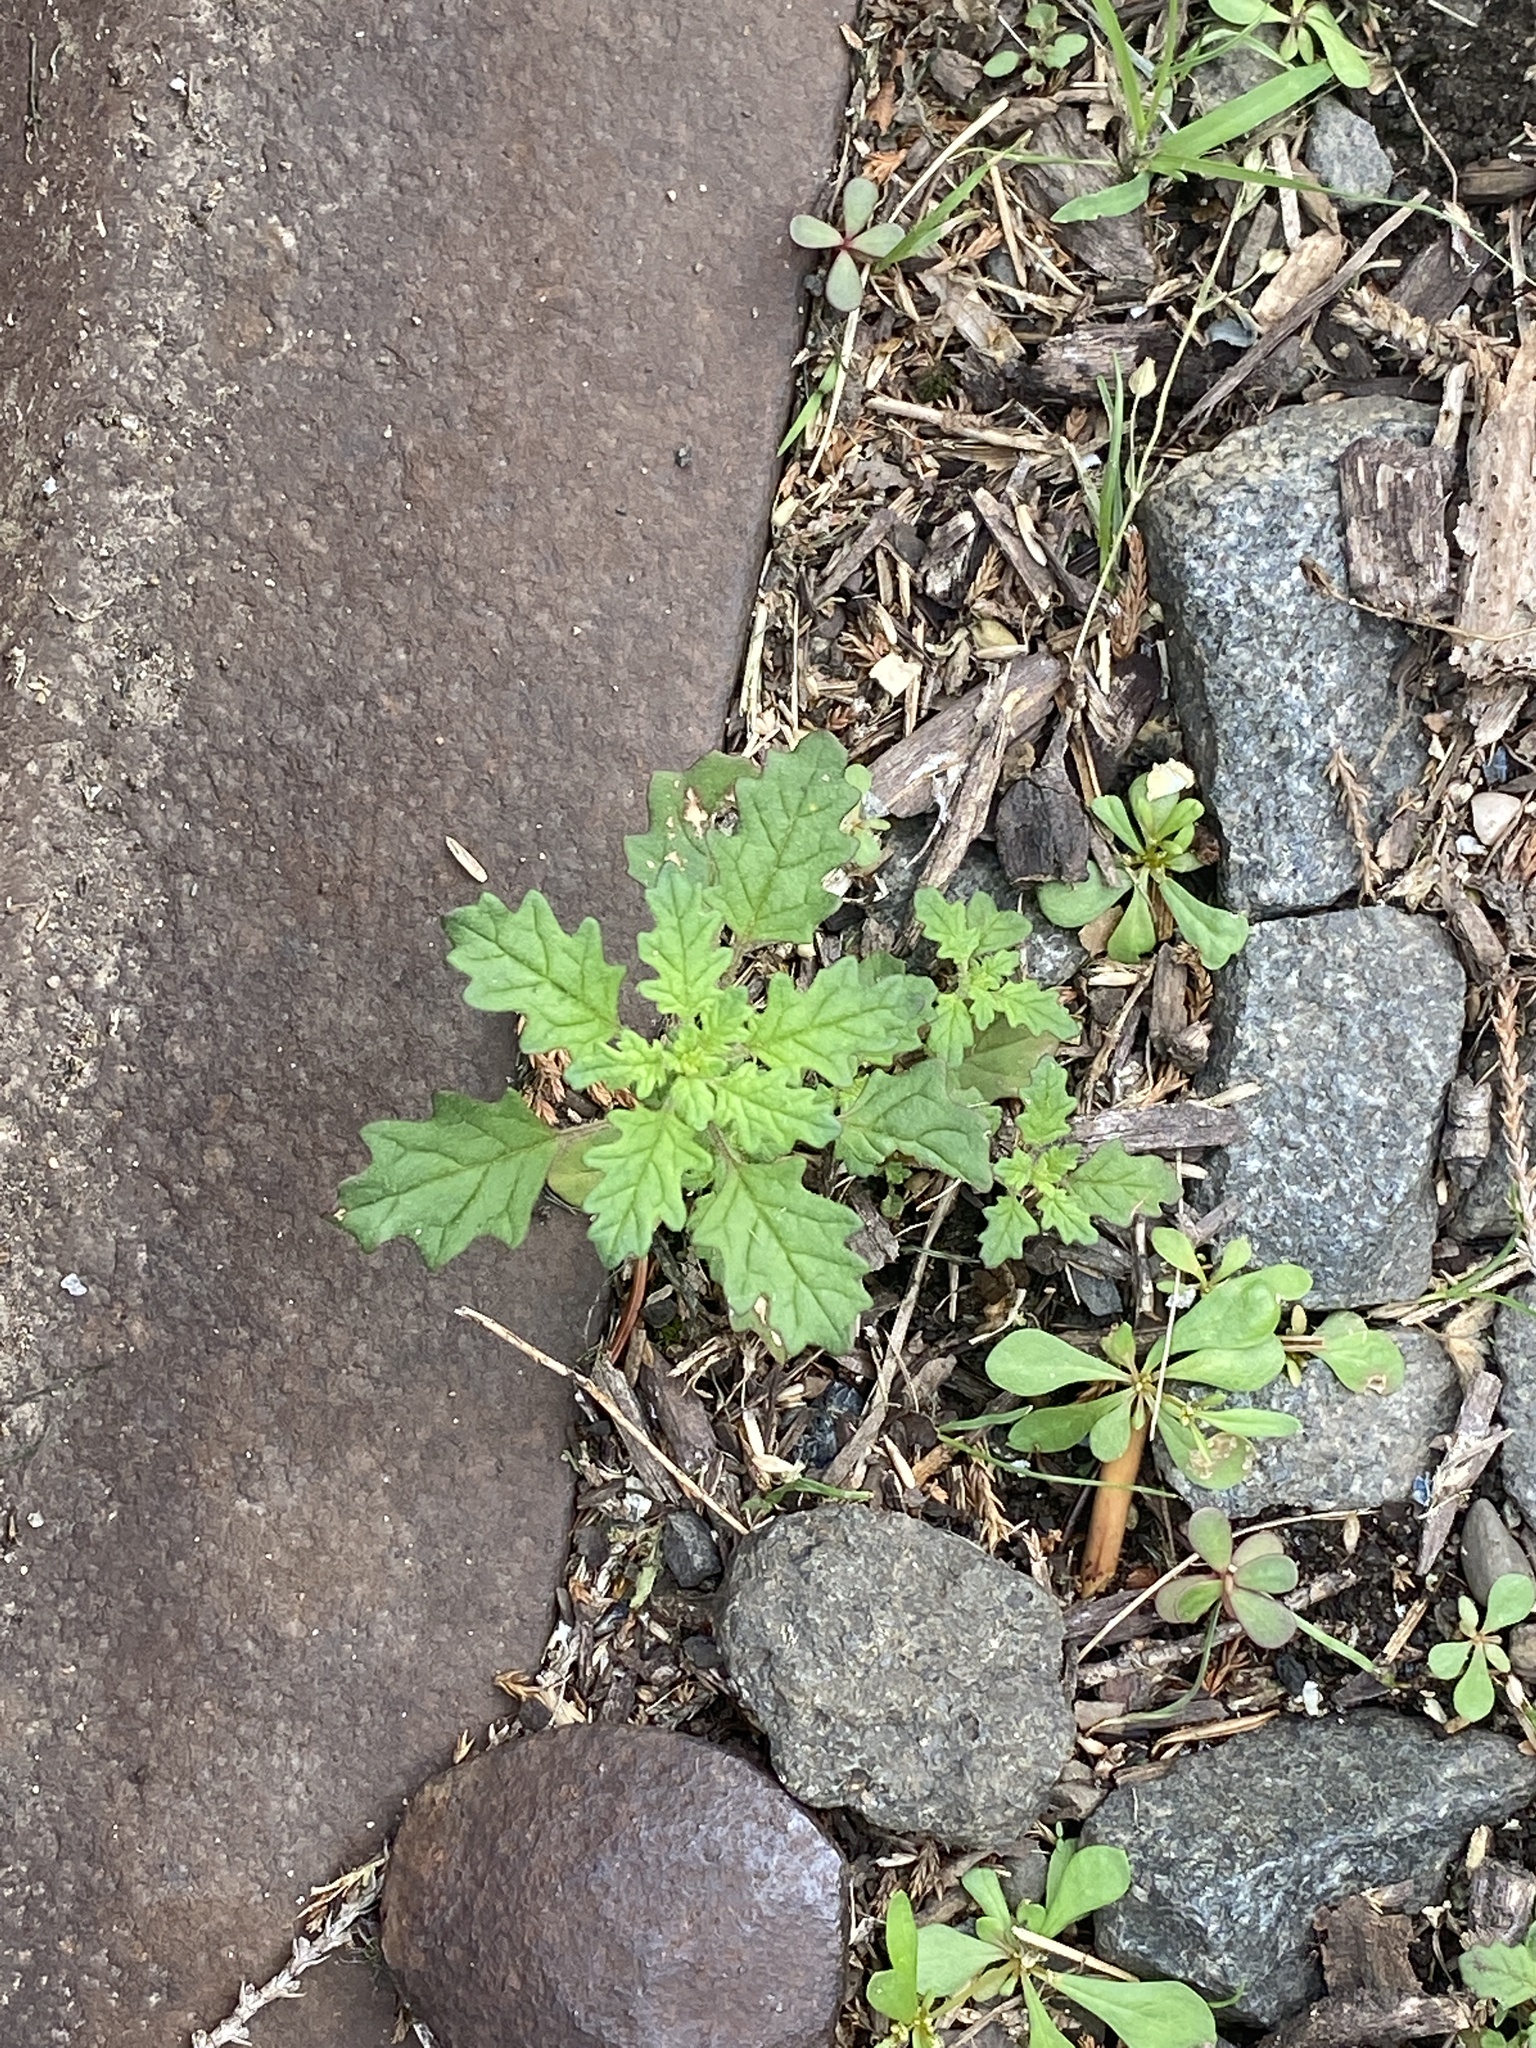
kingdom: Plantae
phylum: Tracheophyta
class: Magnoliopsida
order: Caryophyllales
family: Amaranthaceae
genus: Dysphania
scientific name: Dysphania pumilio
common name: Clammy goosefoot
